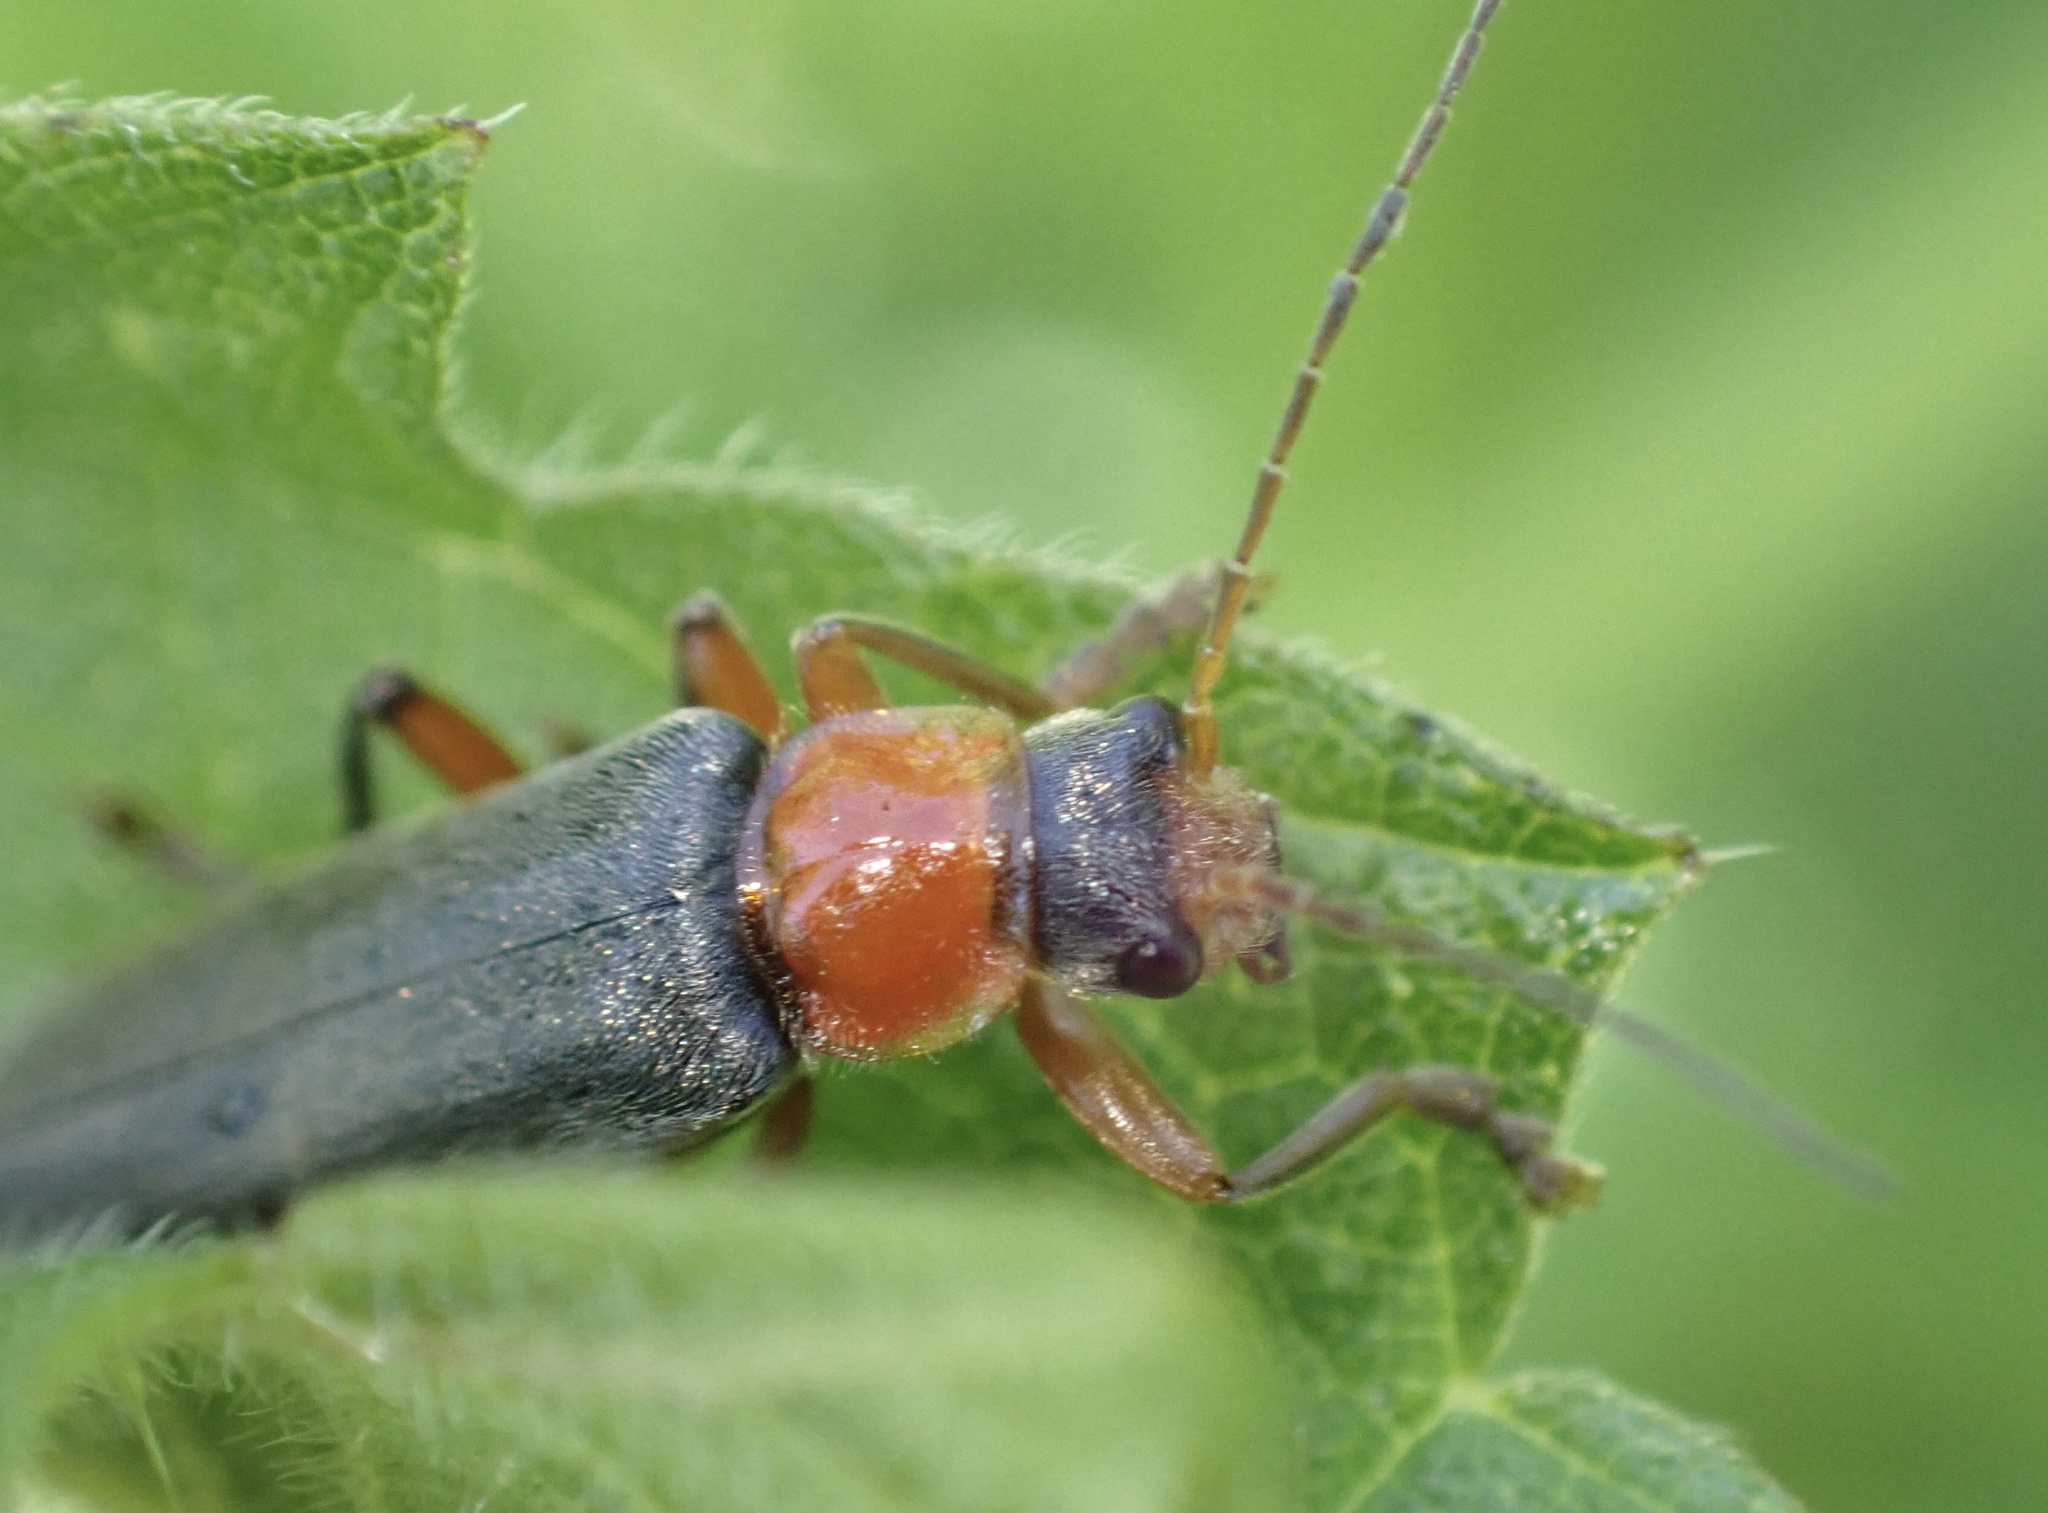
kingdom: Animalia
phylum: Arthropoda
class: Insecta
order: Coleoptera
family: Cantharidae
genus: Cantharis
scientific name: Cantharis pellucida
